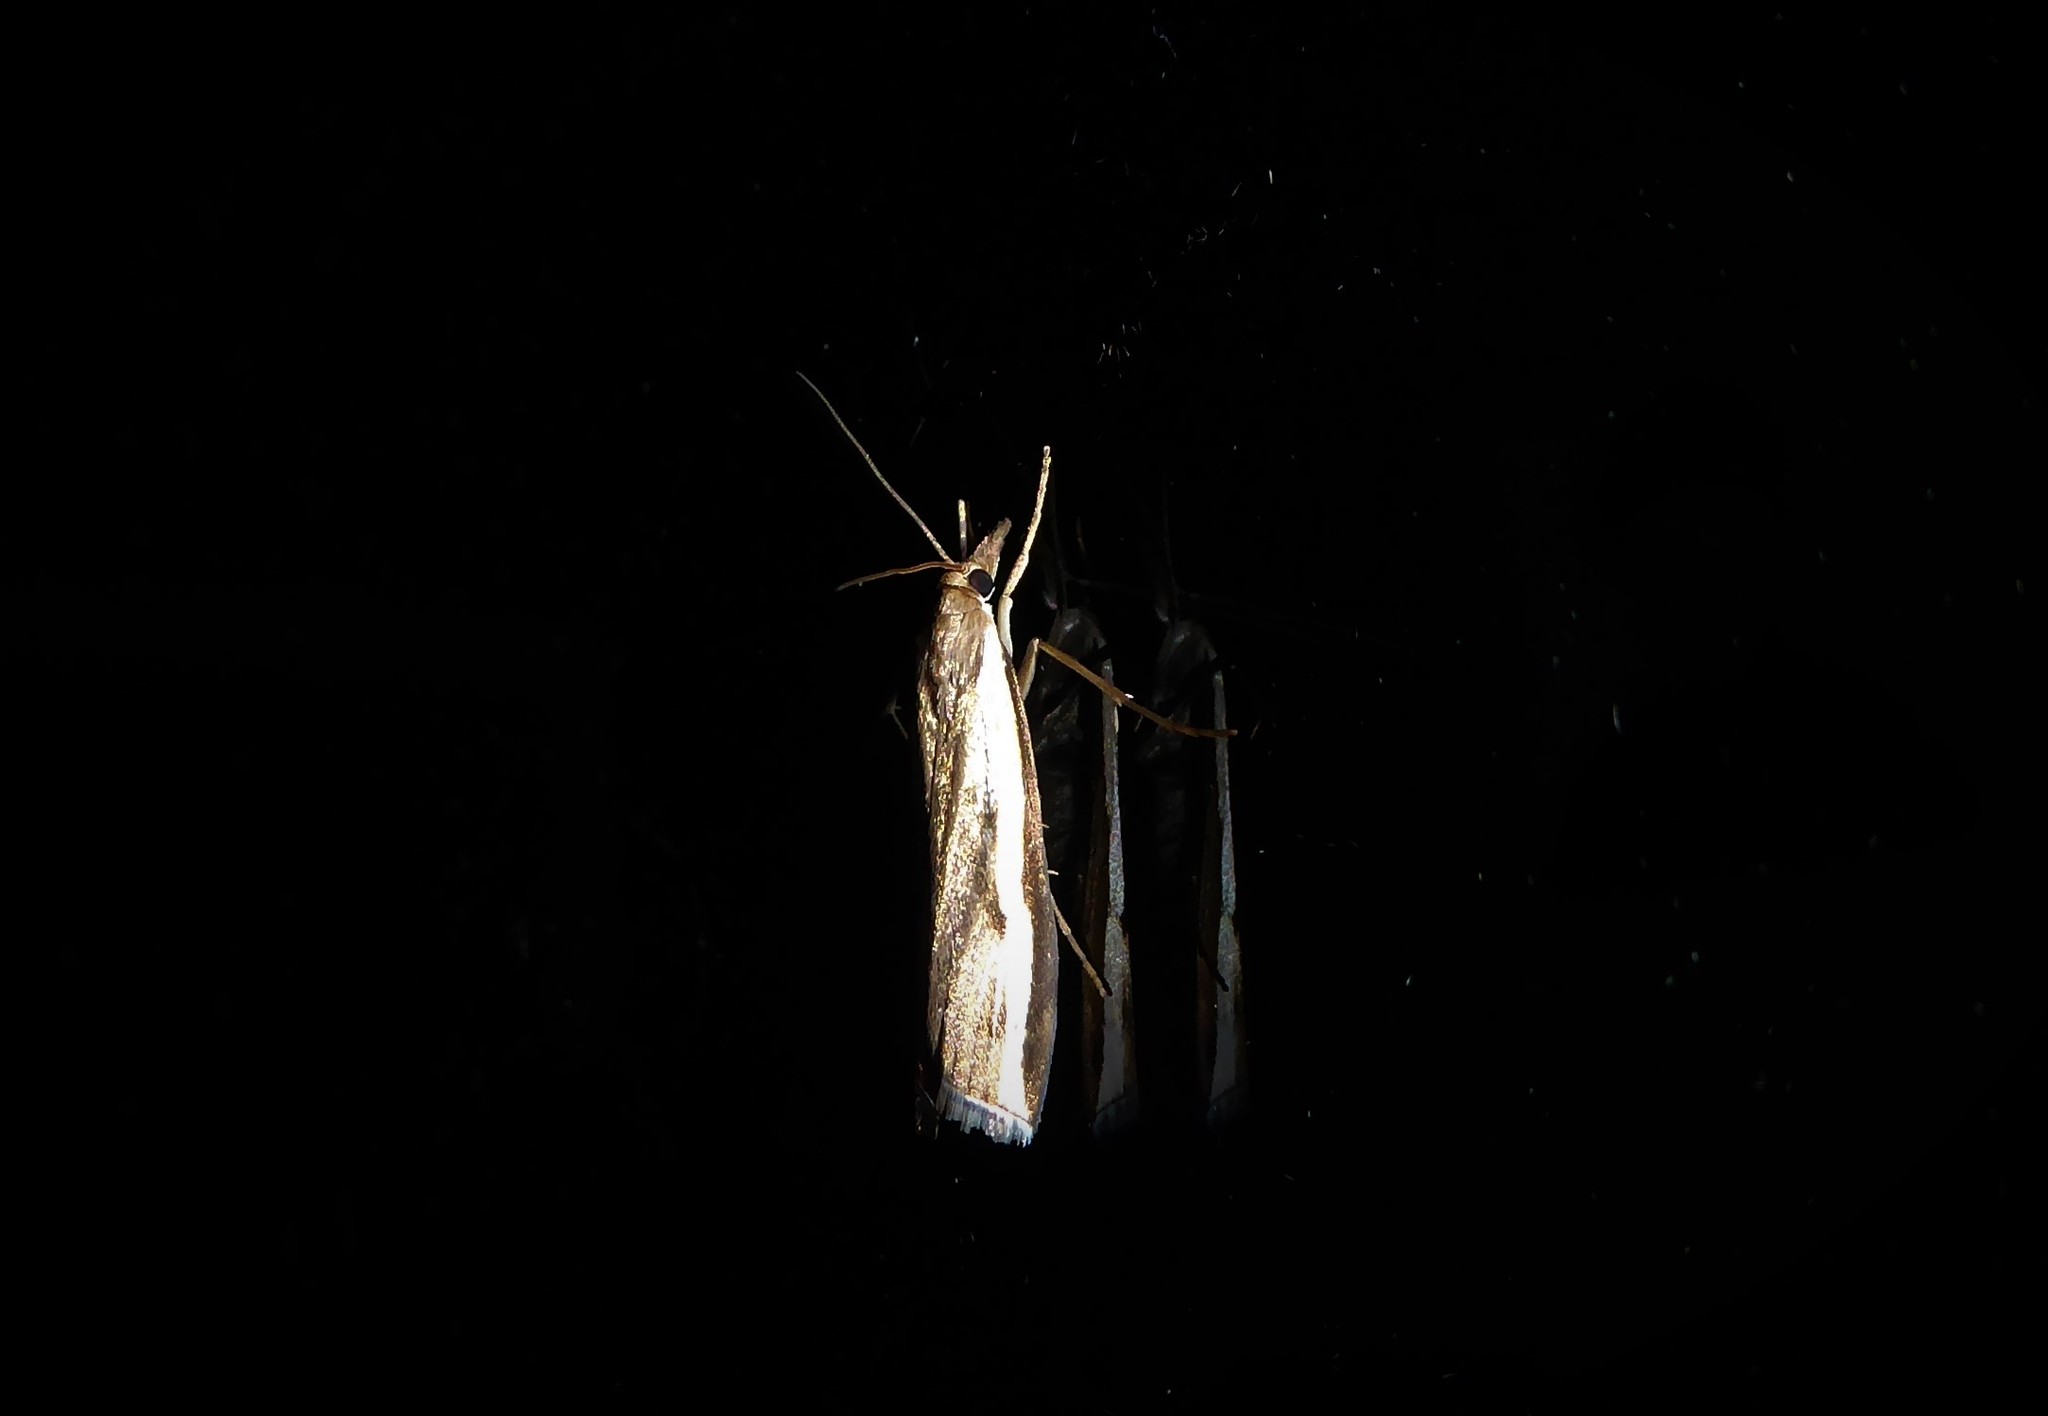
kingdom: Animalia
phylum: Arthropoda
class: Insecta
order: Lepidoptera
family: Crambidae
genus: Orocrambus
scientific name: Orocrambus flexuosellus
